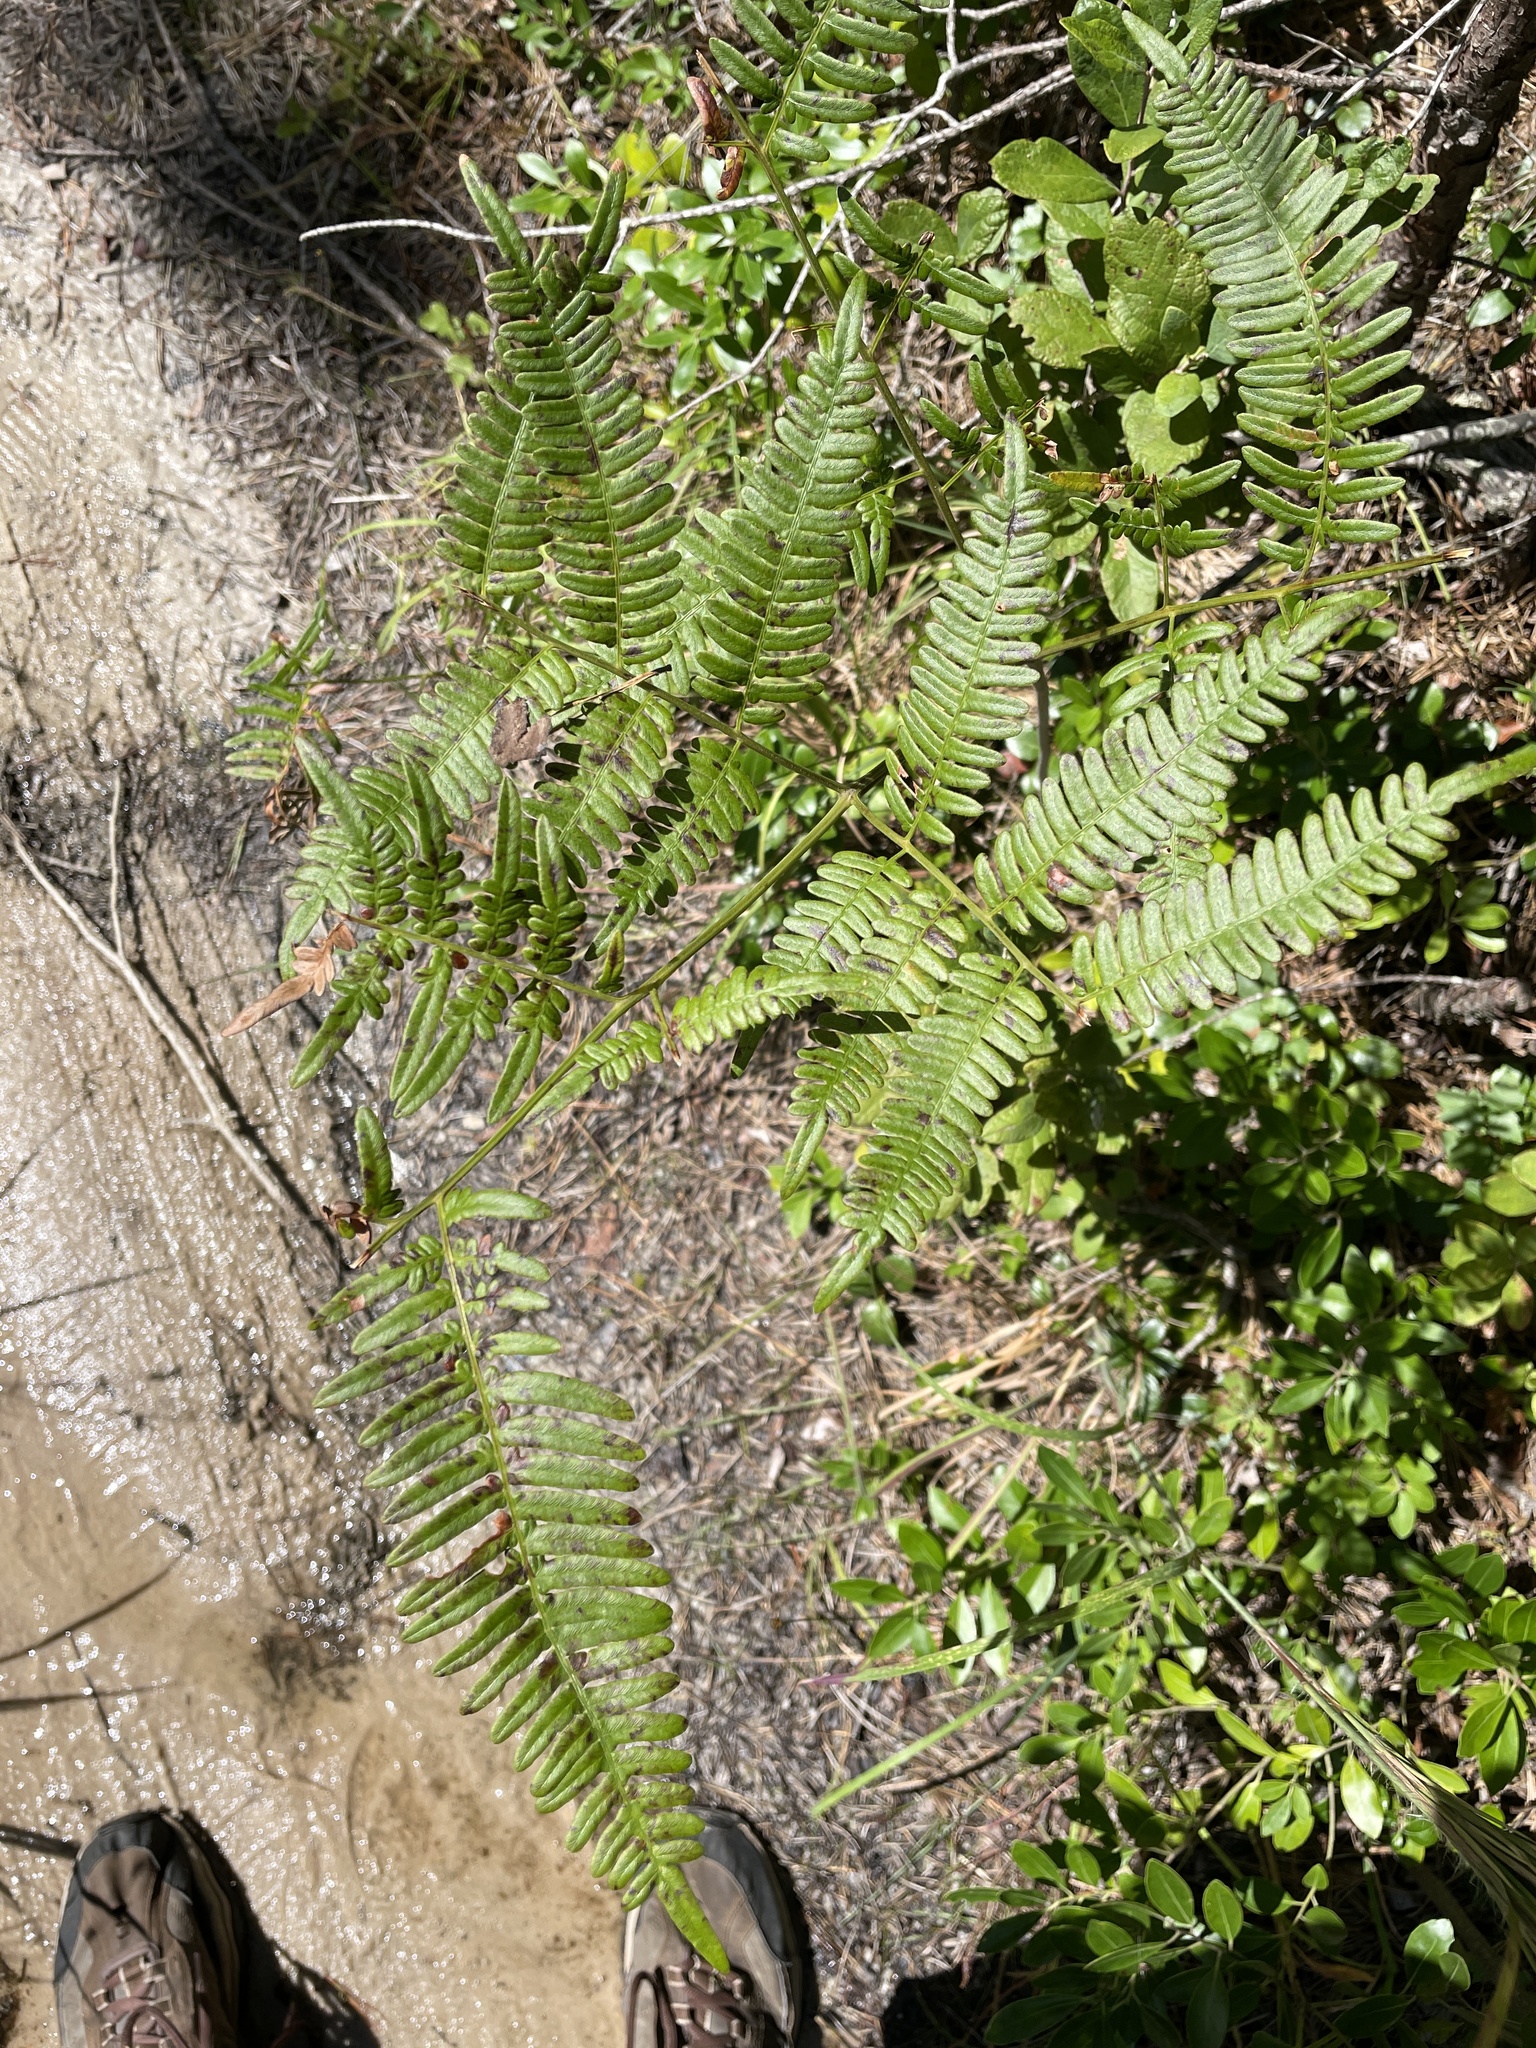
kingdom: Plantae
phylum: Tracheophyta
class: Polypodiopsida
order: Polypodiales
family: Dennstaedtiaceae
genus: Pteridium
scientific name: Pteridium aquilinum
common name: Bracken
